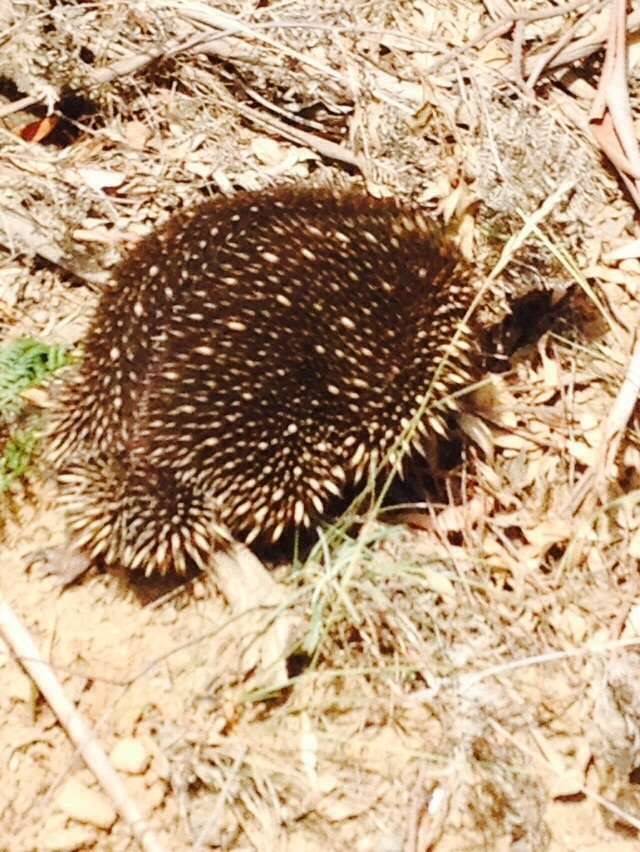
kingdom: Animalia
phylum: Chordata
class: Mammalia
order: Monotremata
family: Tachyglossidae
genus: Tachyglossus
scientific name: Tachyglossus aculeatus
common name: Short-beaked echidna
